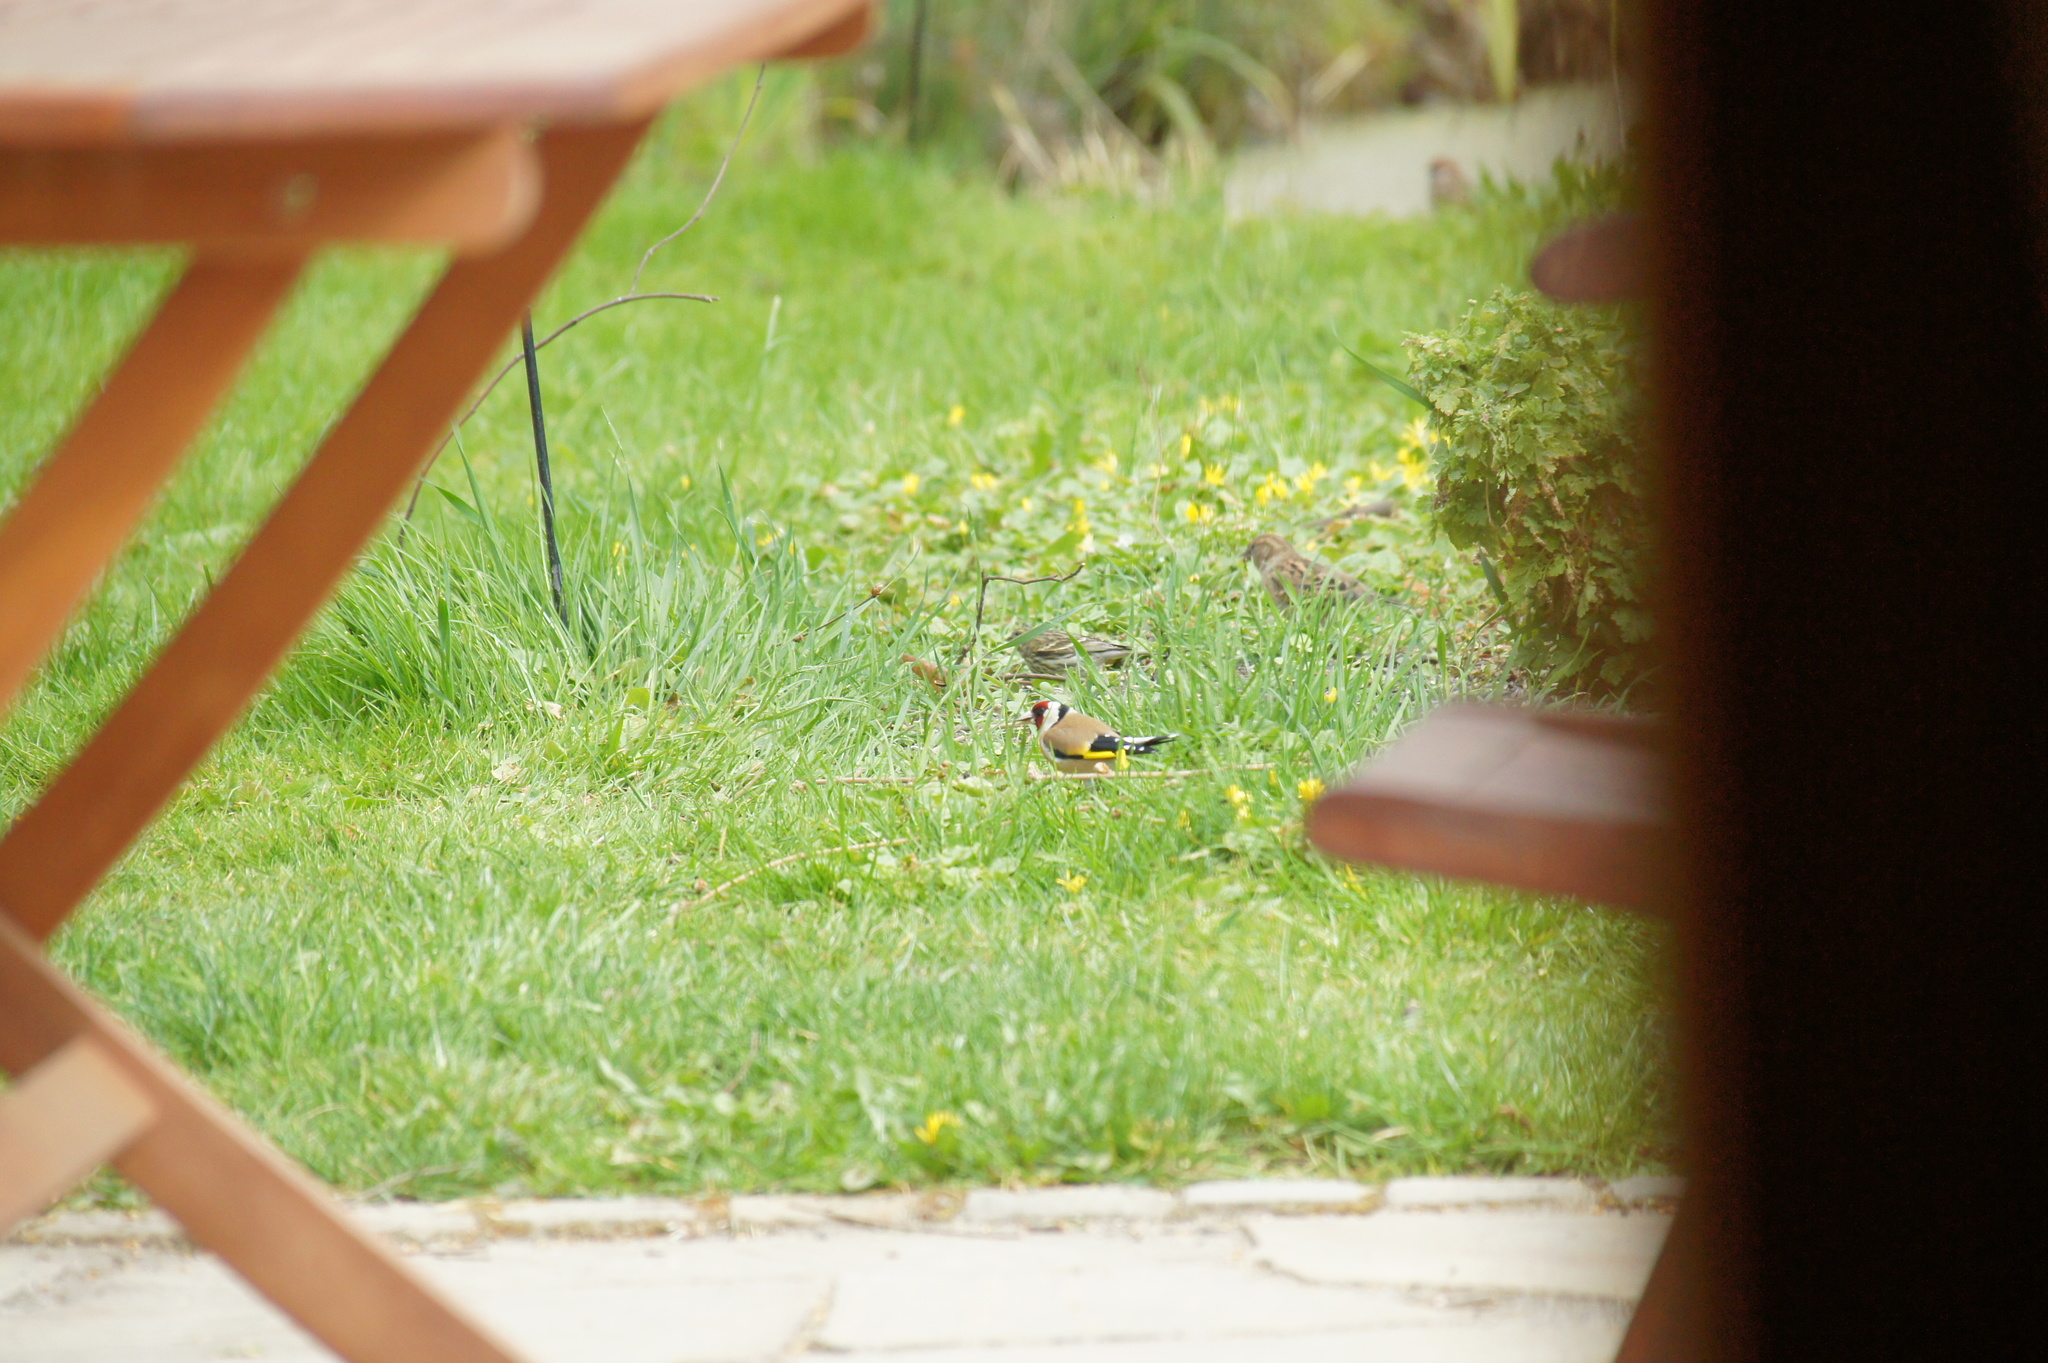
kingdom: Animalia
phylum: Chordata
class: Aves
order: Passeriformes
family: Fringillidae
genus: Carduelis
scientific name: Carduelis carduelis
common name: European goldfinch
